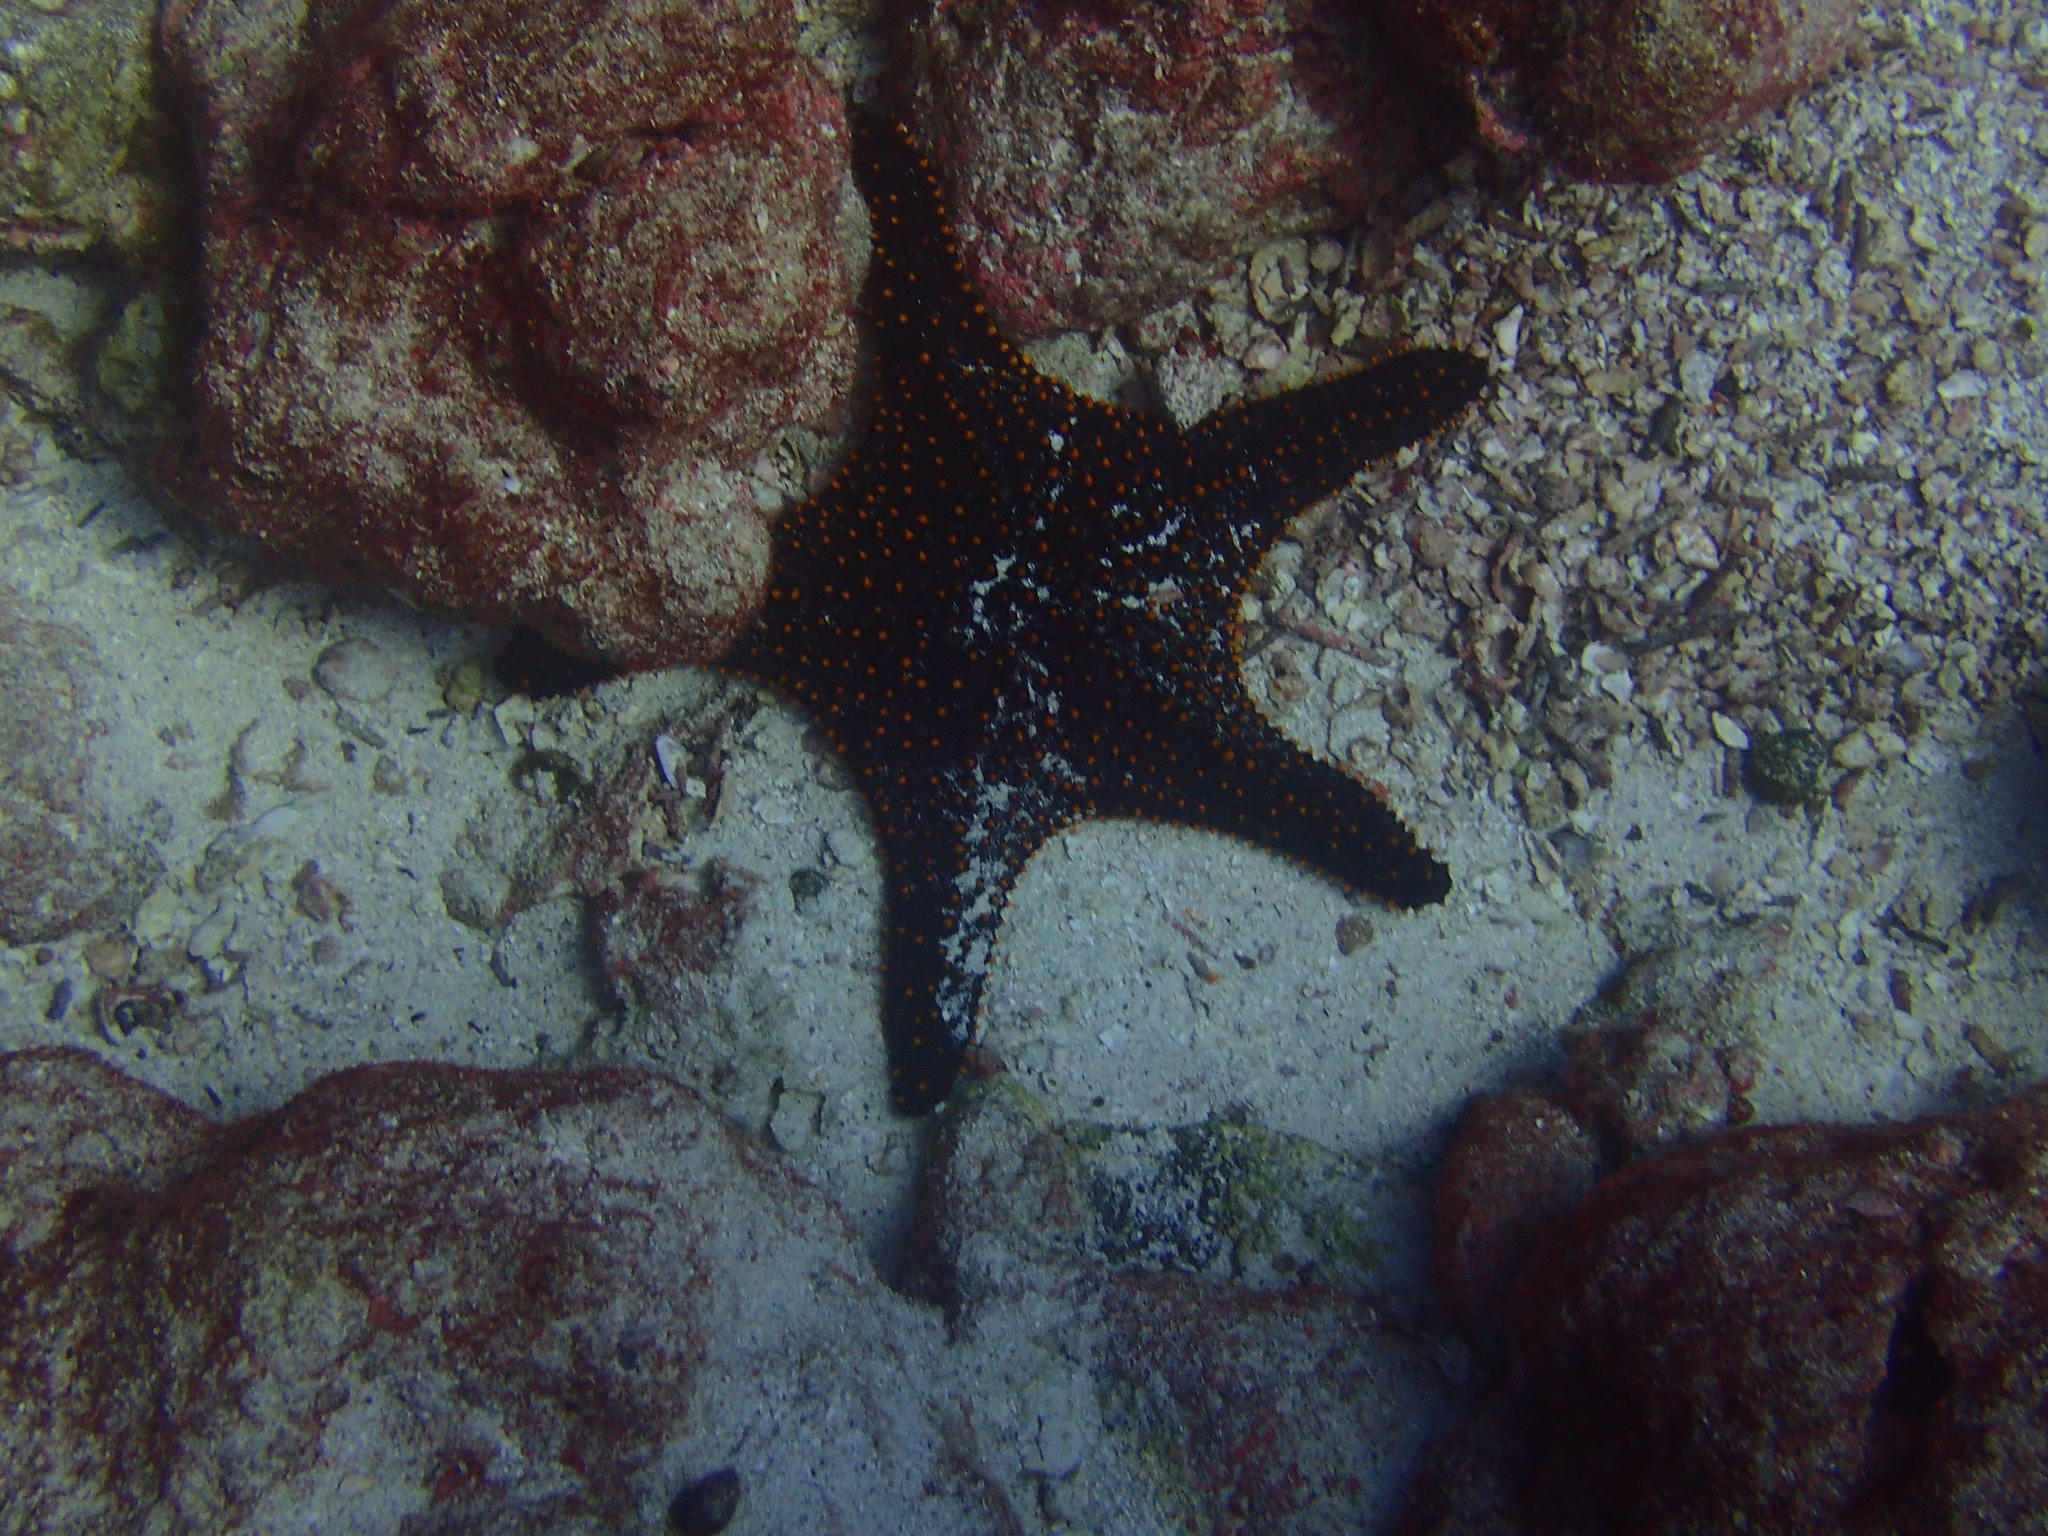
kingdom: Animalia
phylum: Echinodermata
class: Asteroidea
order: Valvatida
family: Oreasteridae
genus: Pentaceraster
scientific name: Pentaceraster cumingi
